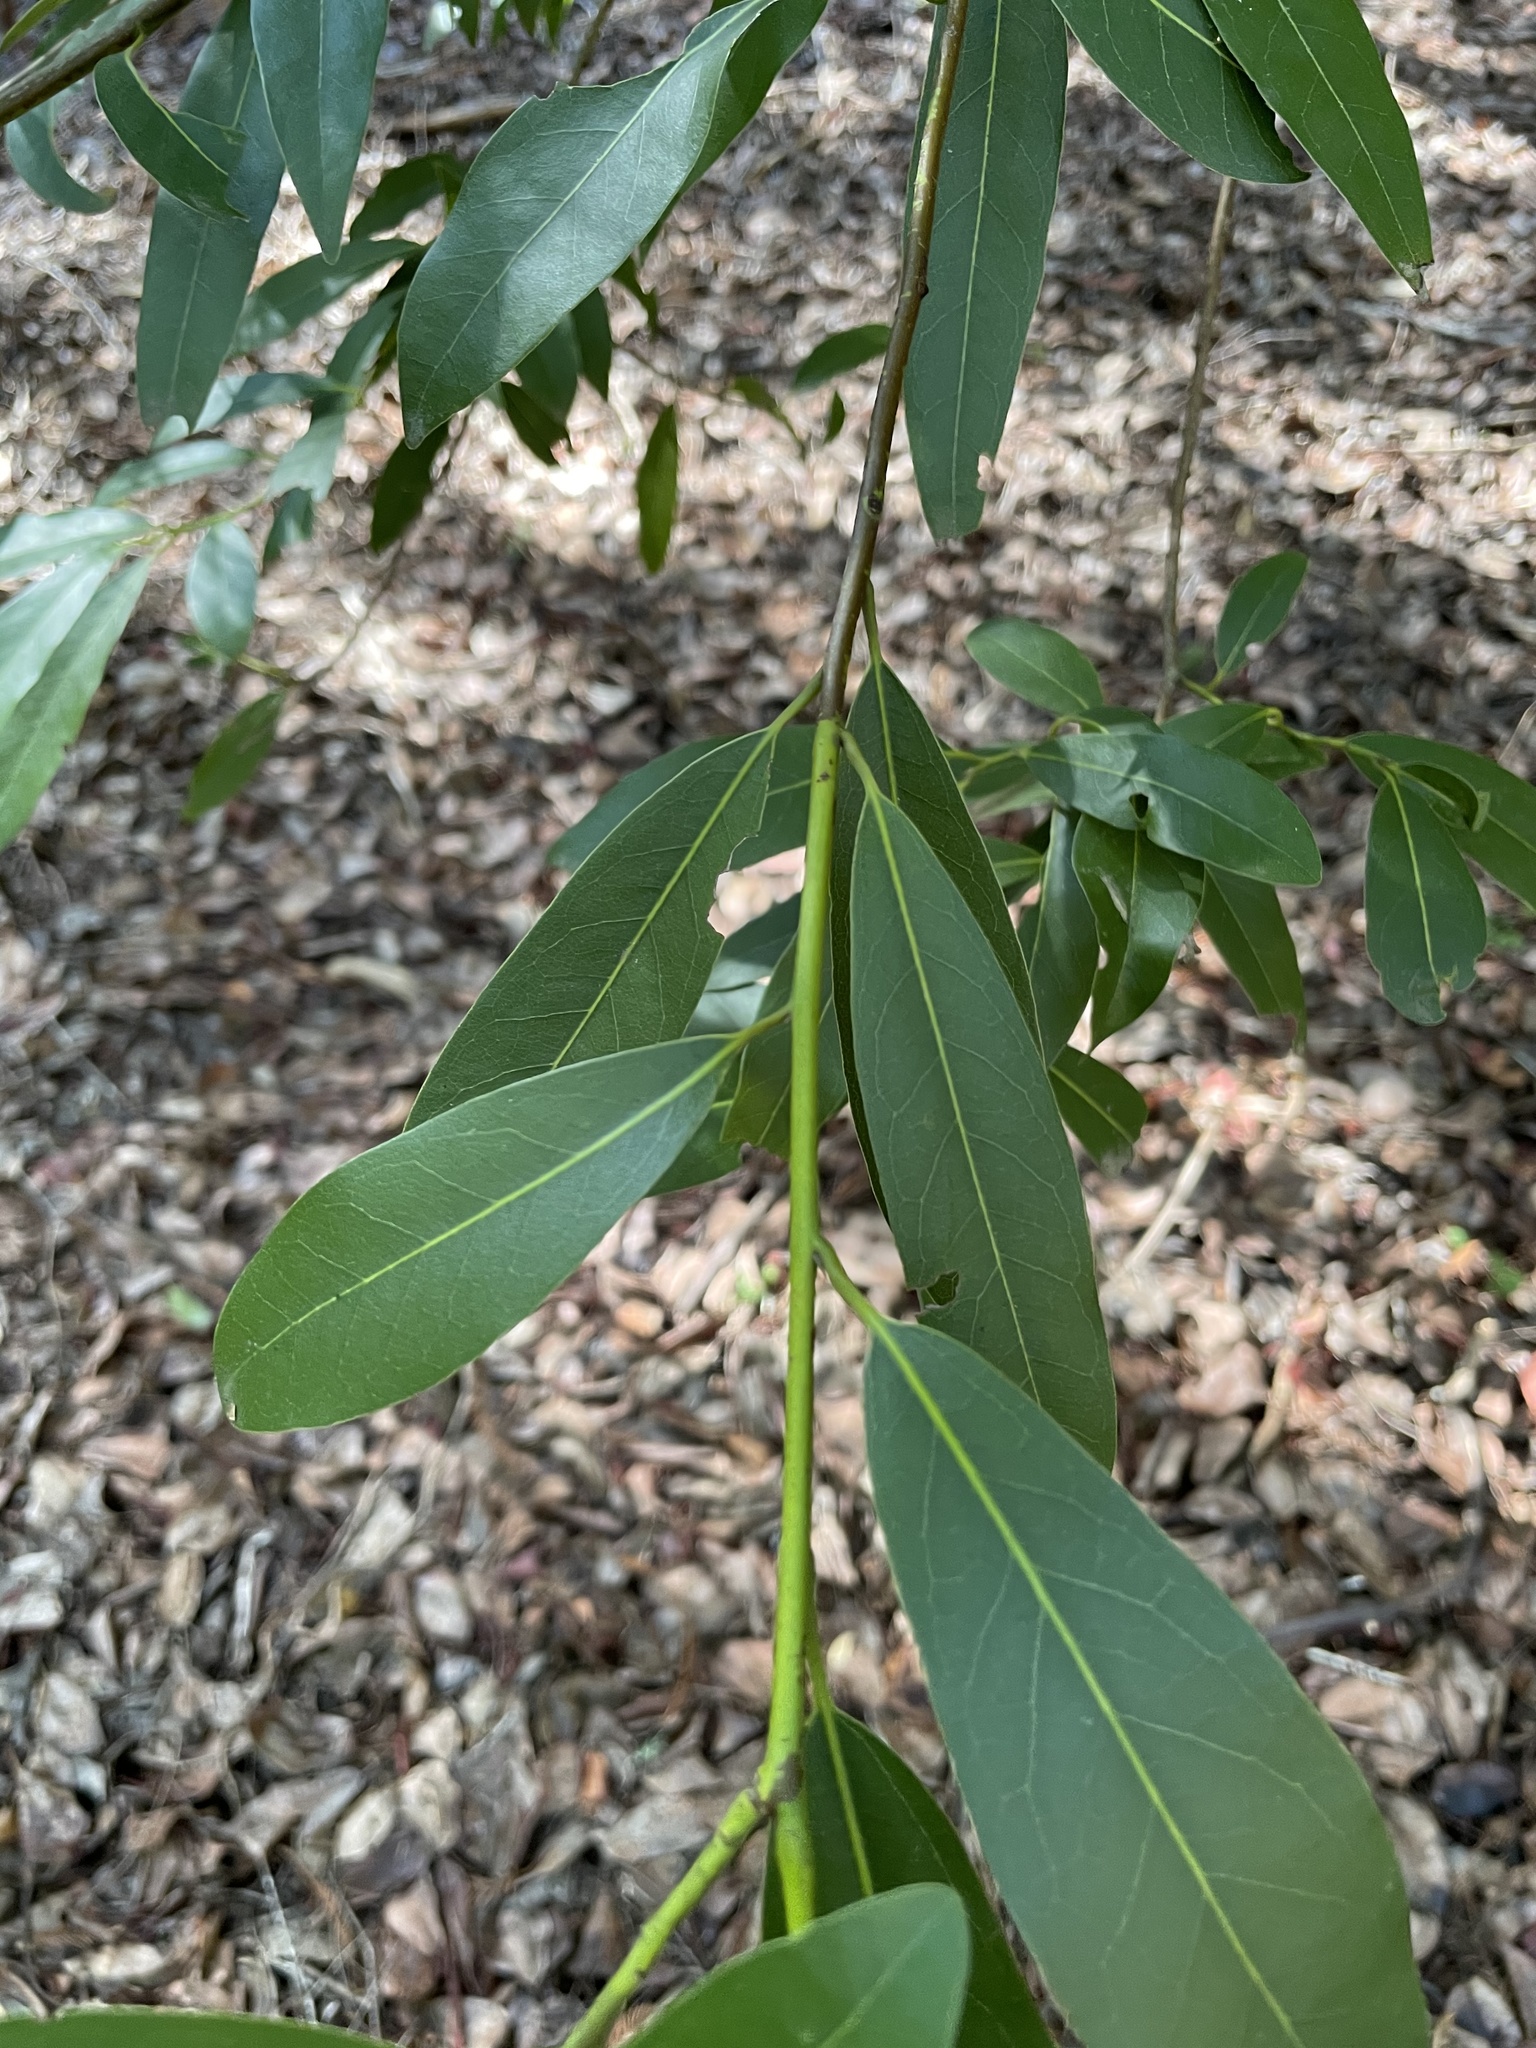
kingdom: Plantae
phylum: Tracheophyta
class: Magnoliopsida
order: Laurales
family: Lauraceae
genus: Umbellularia
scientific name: Umbellularia californica
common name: California bay
